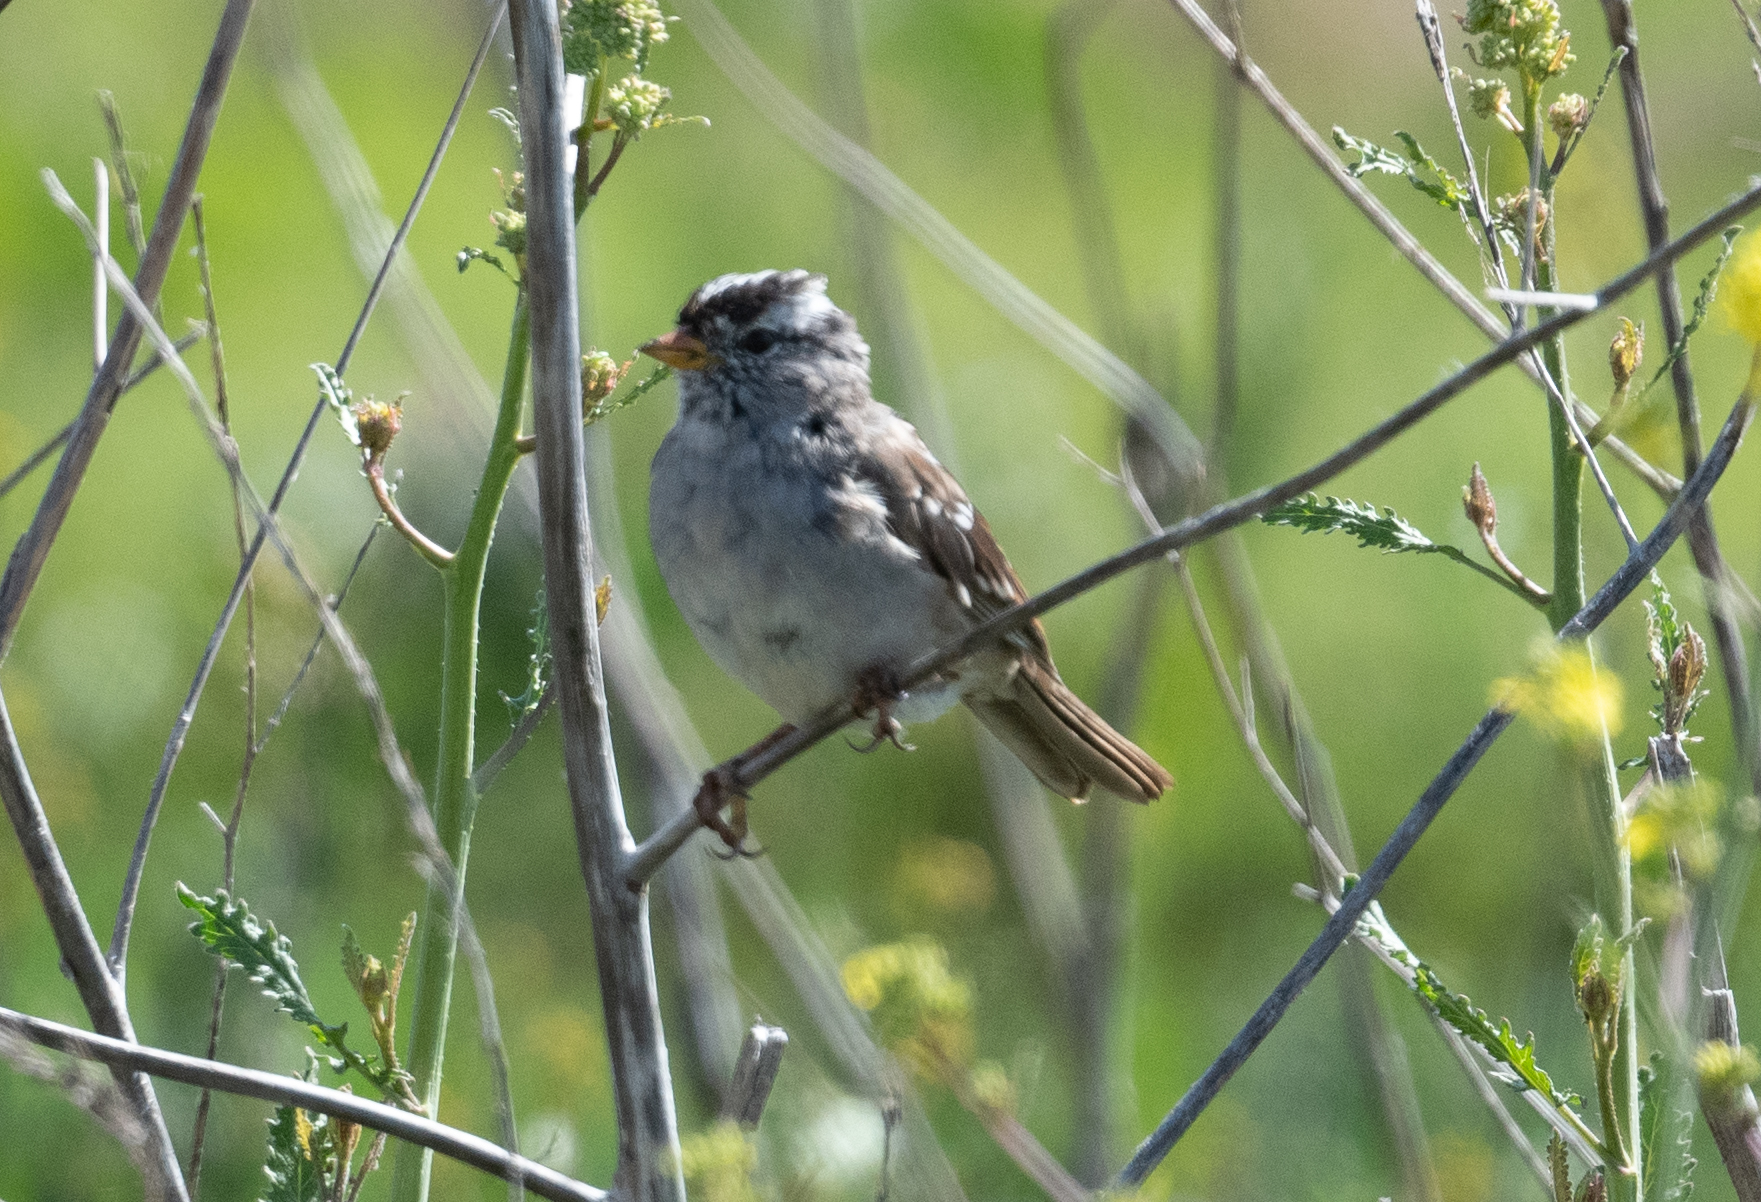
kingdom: Animalia
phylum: Chordata
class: Aves
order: Passeriformes
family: Passerellidae
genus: Zonotrichia
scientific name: Zonotrichia leucophrys
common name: White-crowned sparrow
